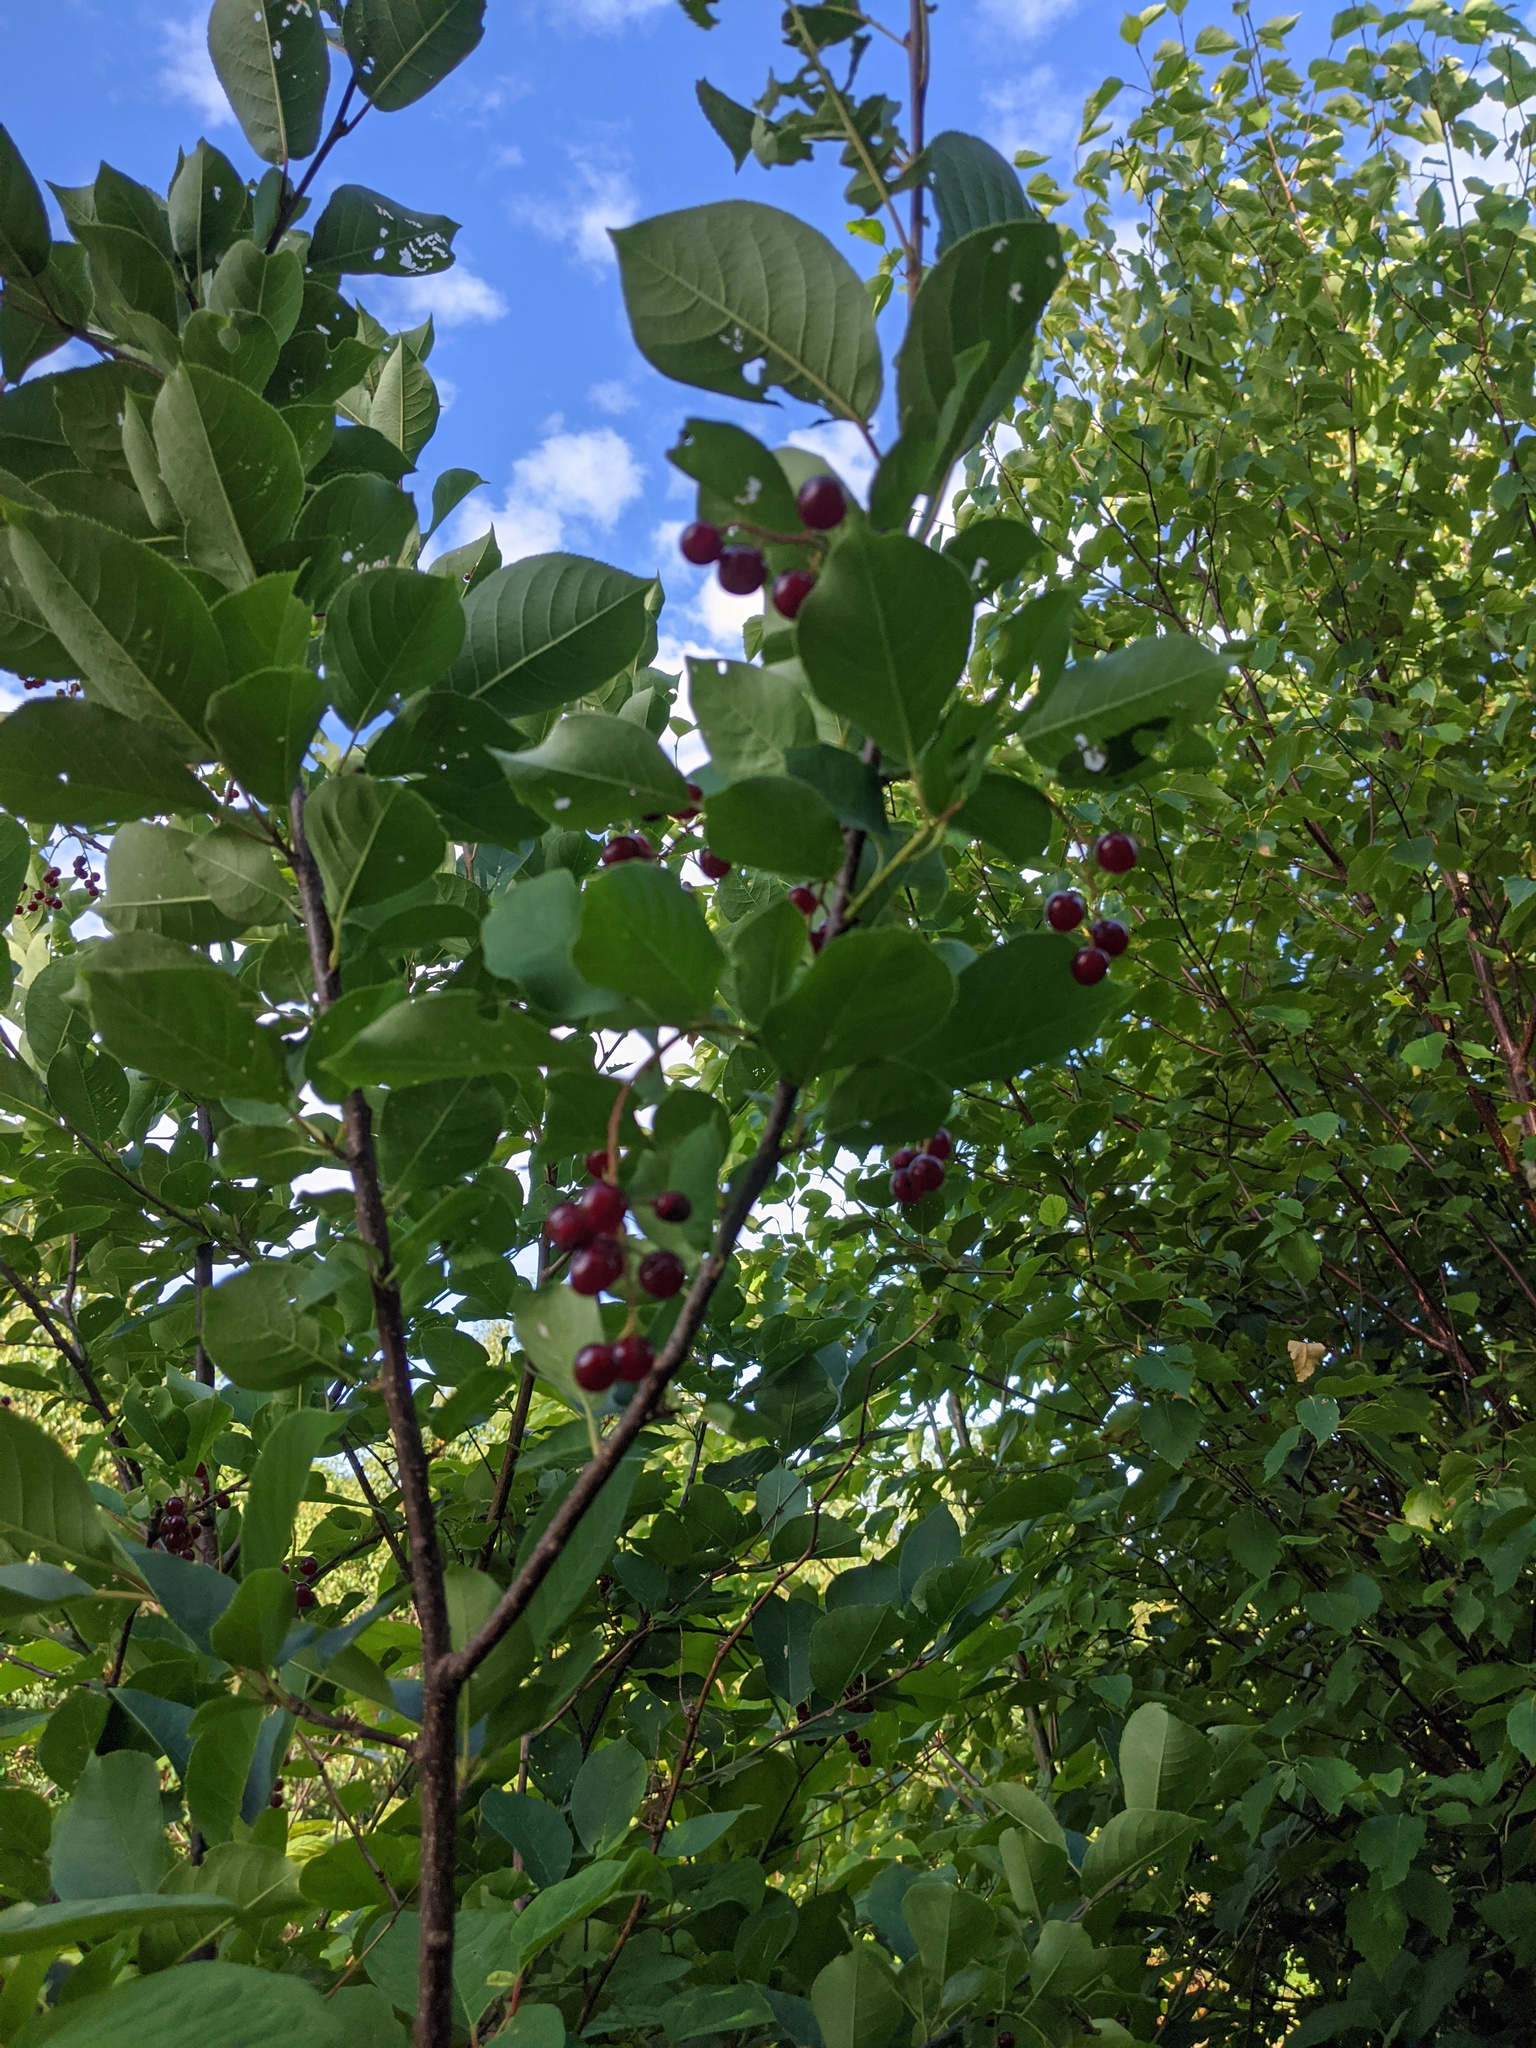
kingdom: Plantae
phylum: Tracheophyta
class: Magnoliopsida
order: Rosales
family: Rosaceae
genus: Prunus
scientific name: Prunus virginiana
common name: Chokecherry
